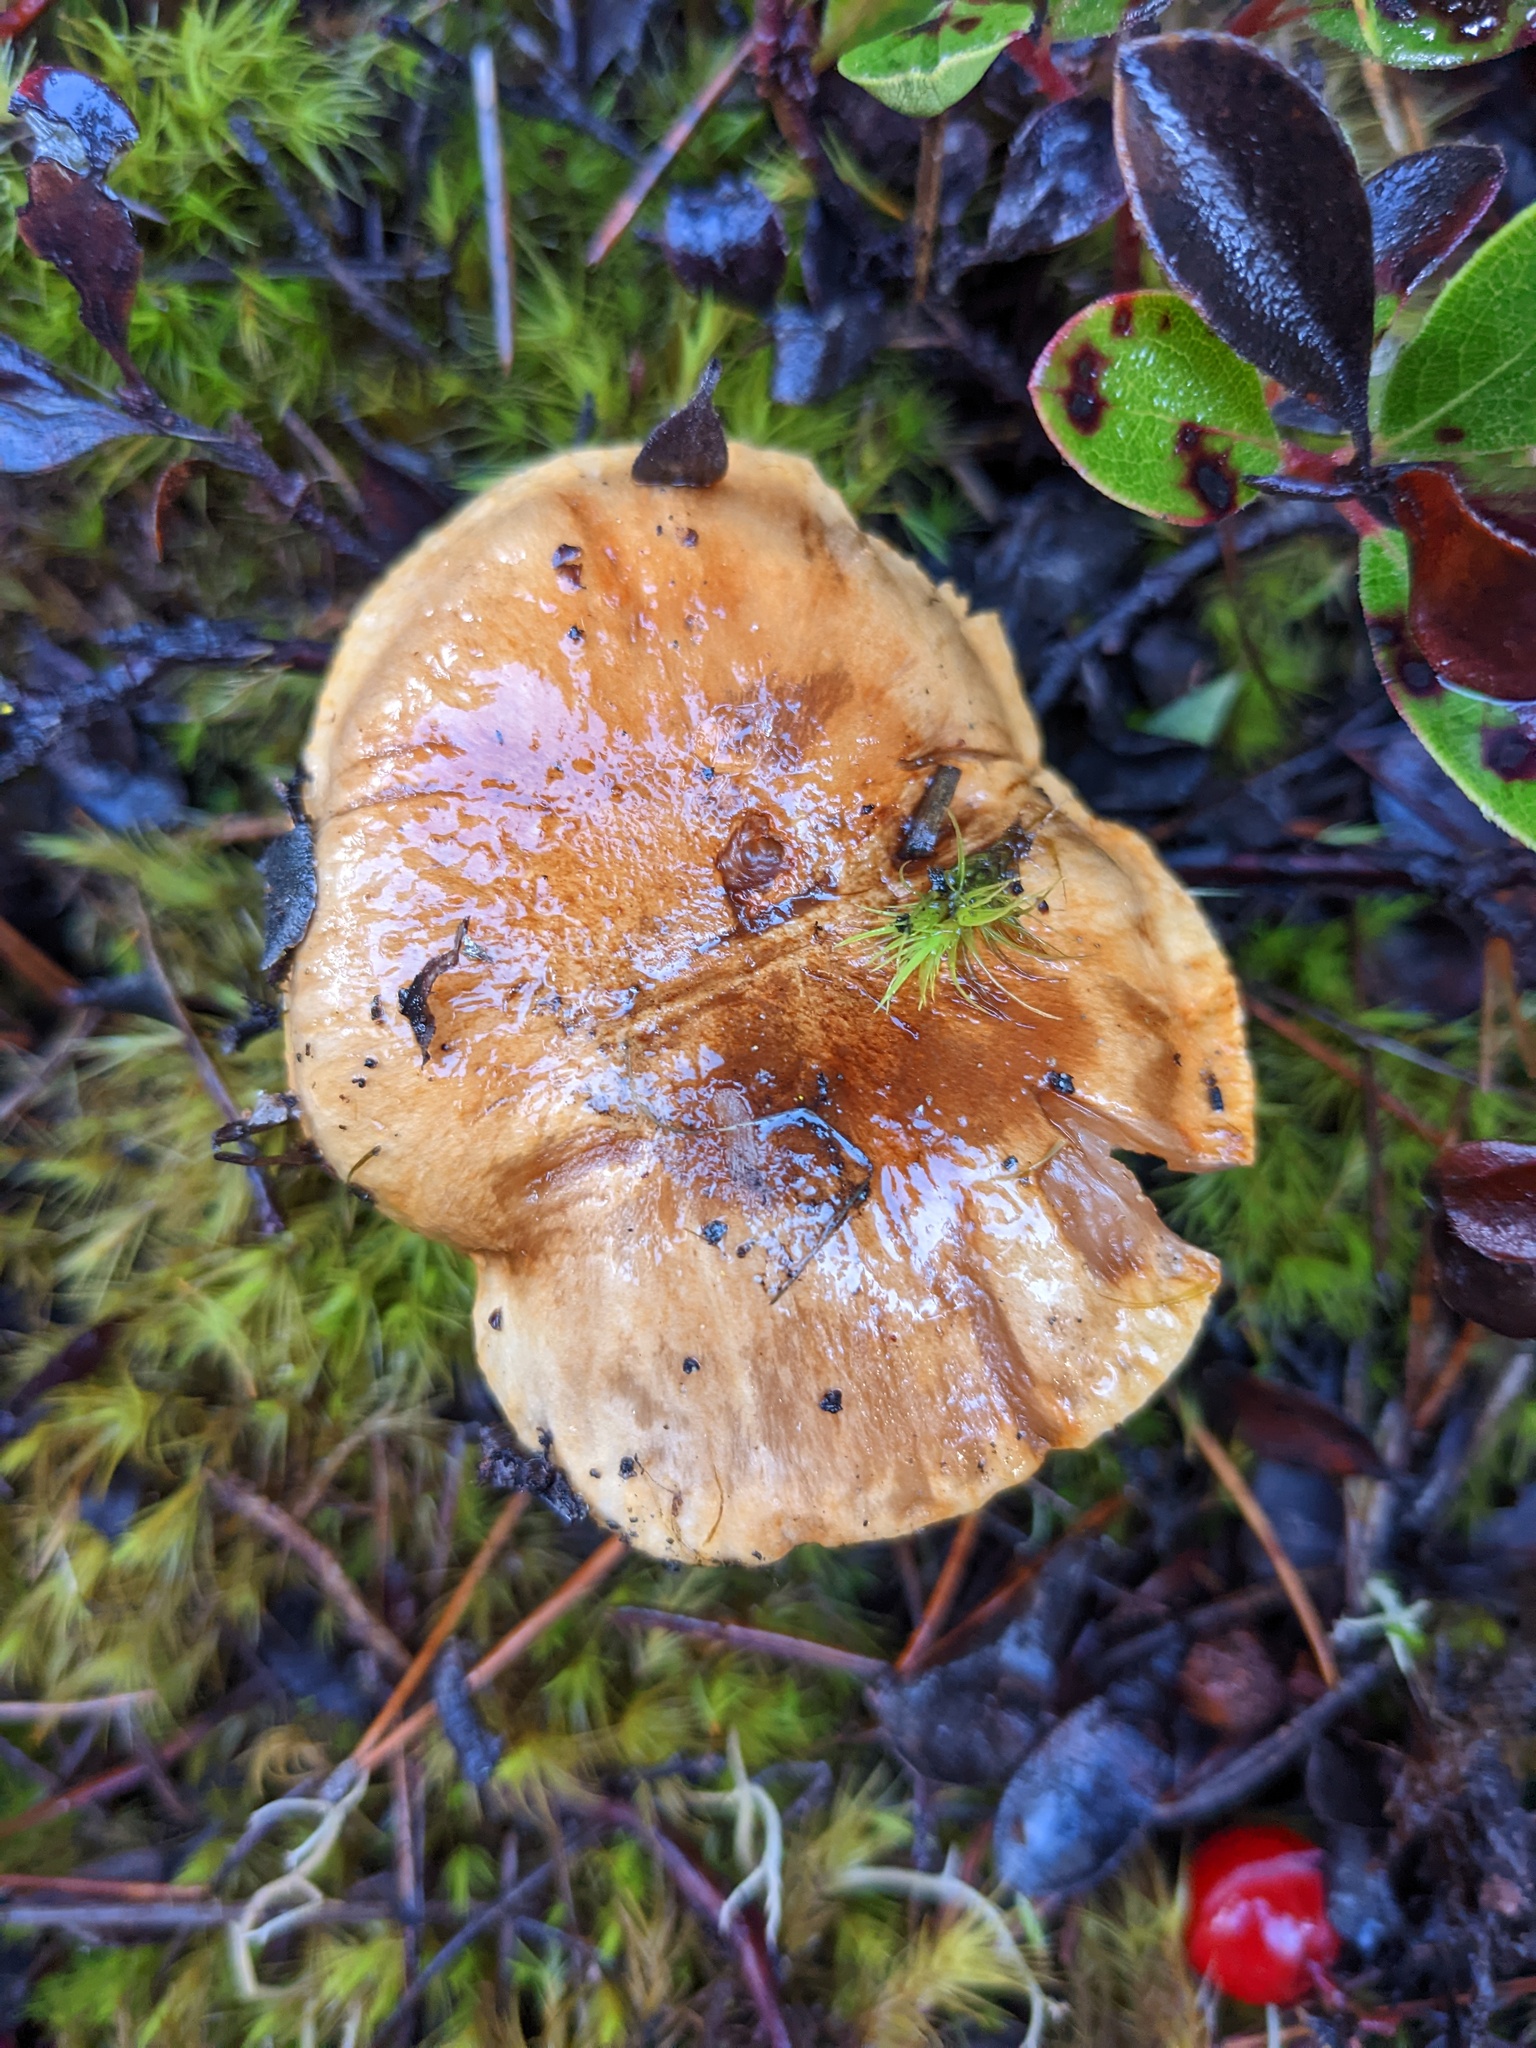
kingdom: Fungi
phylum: Basidiomycota
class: Agaricomycetes
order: Agaricales
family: Tricholomataceae
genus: Tricholoma
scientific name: Tricholoma focale
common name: Booted knight
